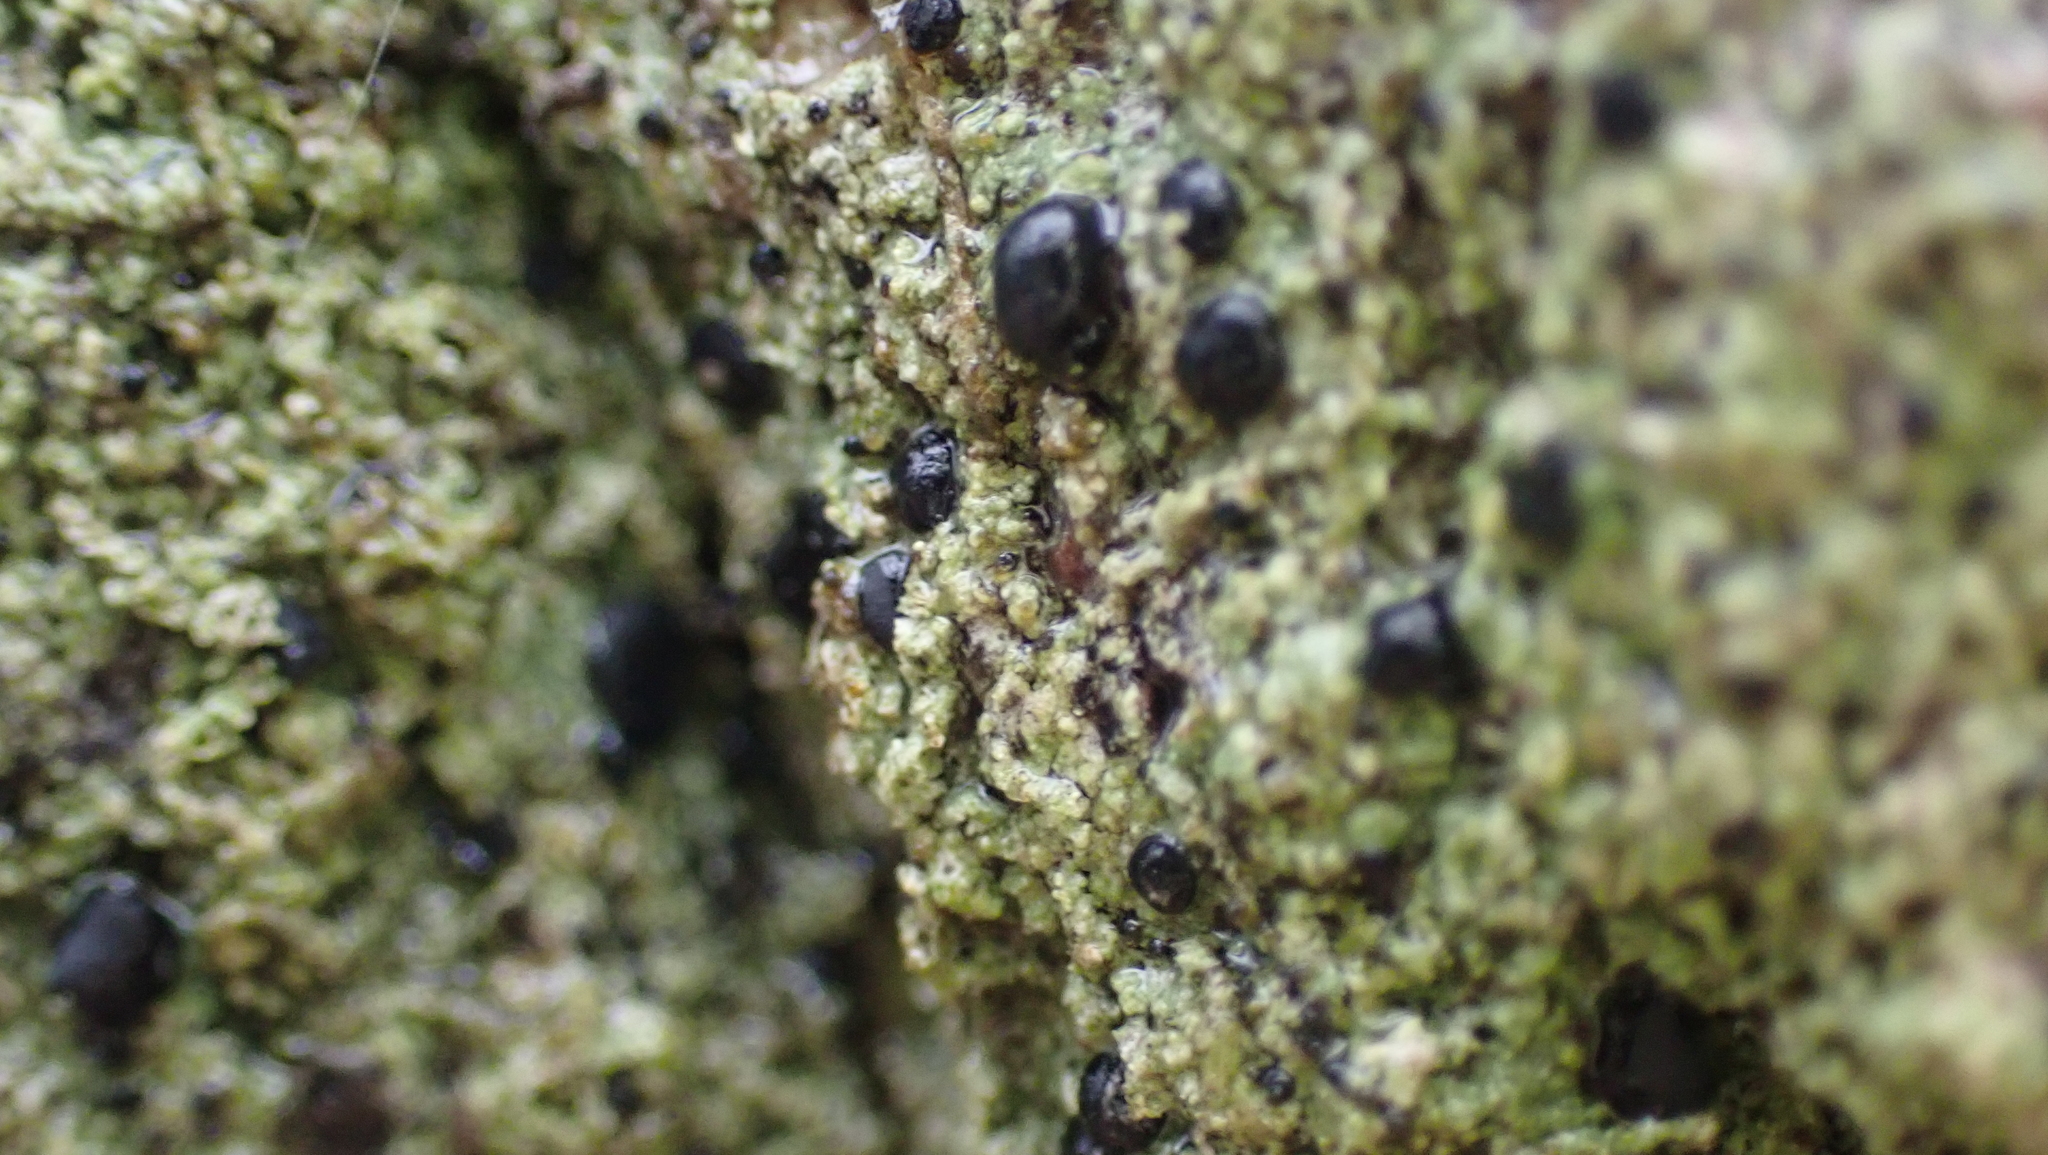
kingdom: Fungi
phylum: Ascomycota
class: Lecanoromycetes
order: Lecanorales
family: Ramalinaceae
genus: Bacidia
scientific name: Bacidia schweinitzii
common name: Surprise lichen
